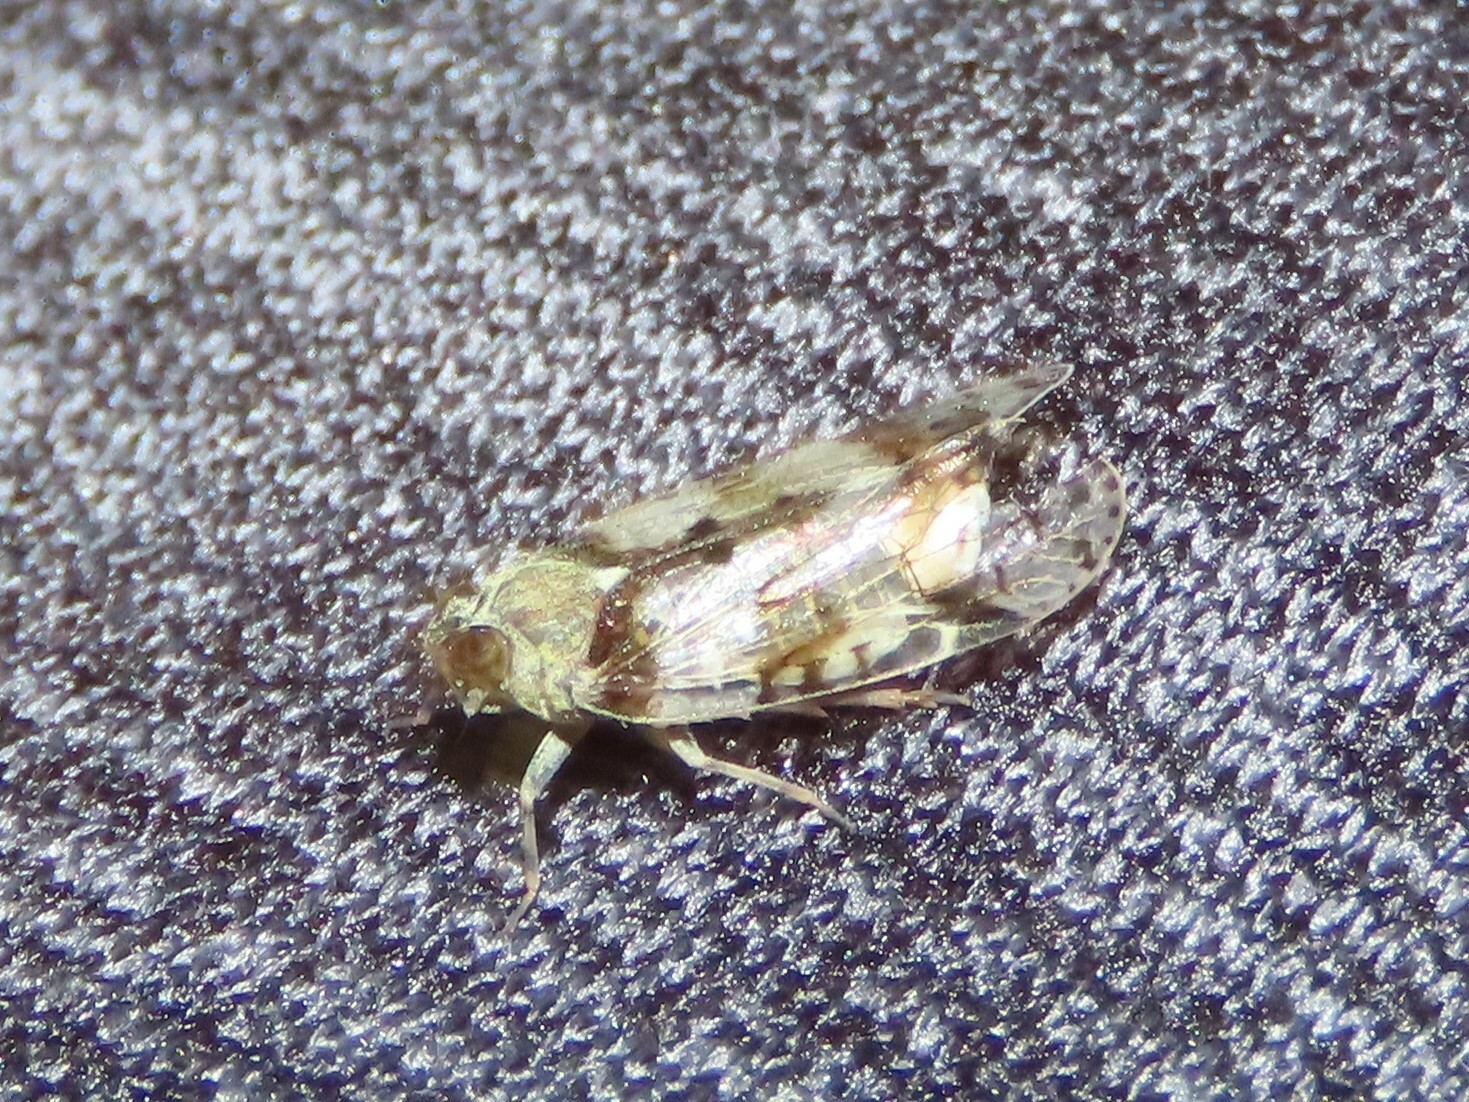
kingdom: Animalia
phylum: Arthropoda
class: Insecta
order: Hemiptera
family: Cixiidae
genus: Melanoliarus
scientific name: Melanoliarus placitus
